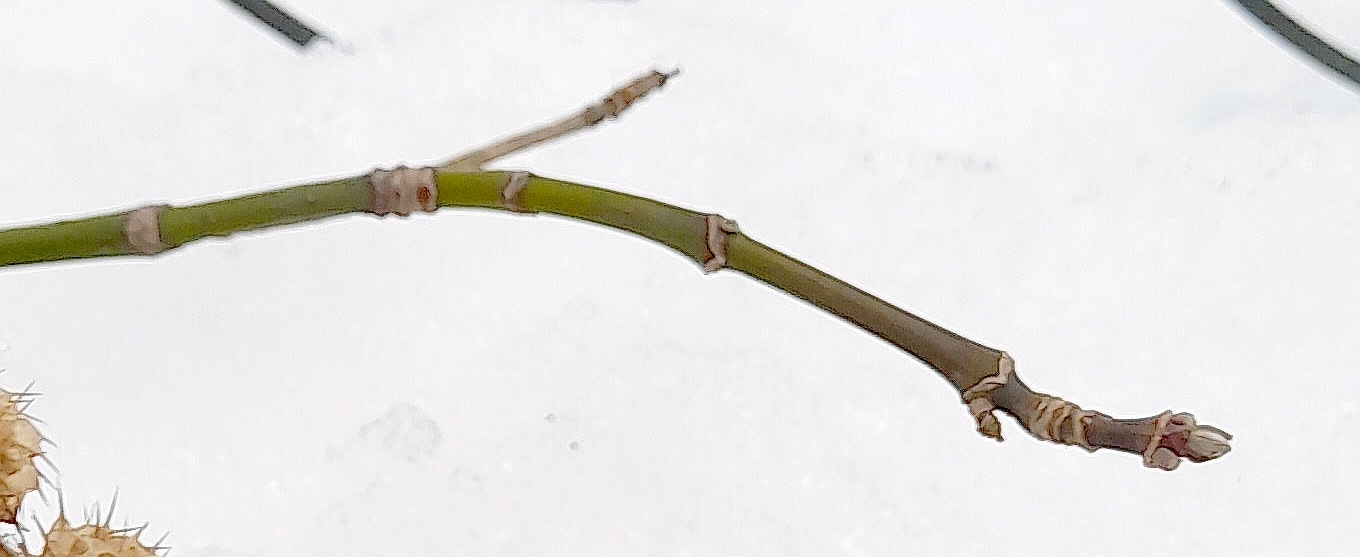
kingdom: Plantae
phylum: Tracheophyta
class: Magnoliopsida
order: Sapindales
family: Sapindaceae
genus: Acer
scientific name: Acer negundo
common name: Ashleaf maple
